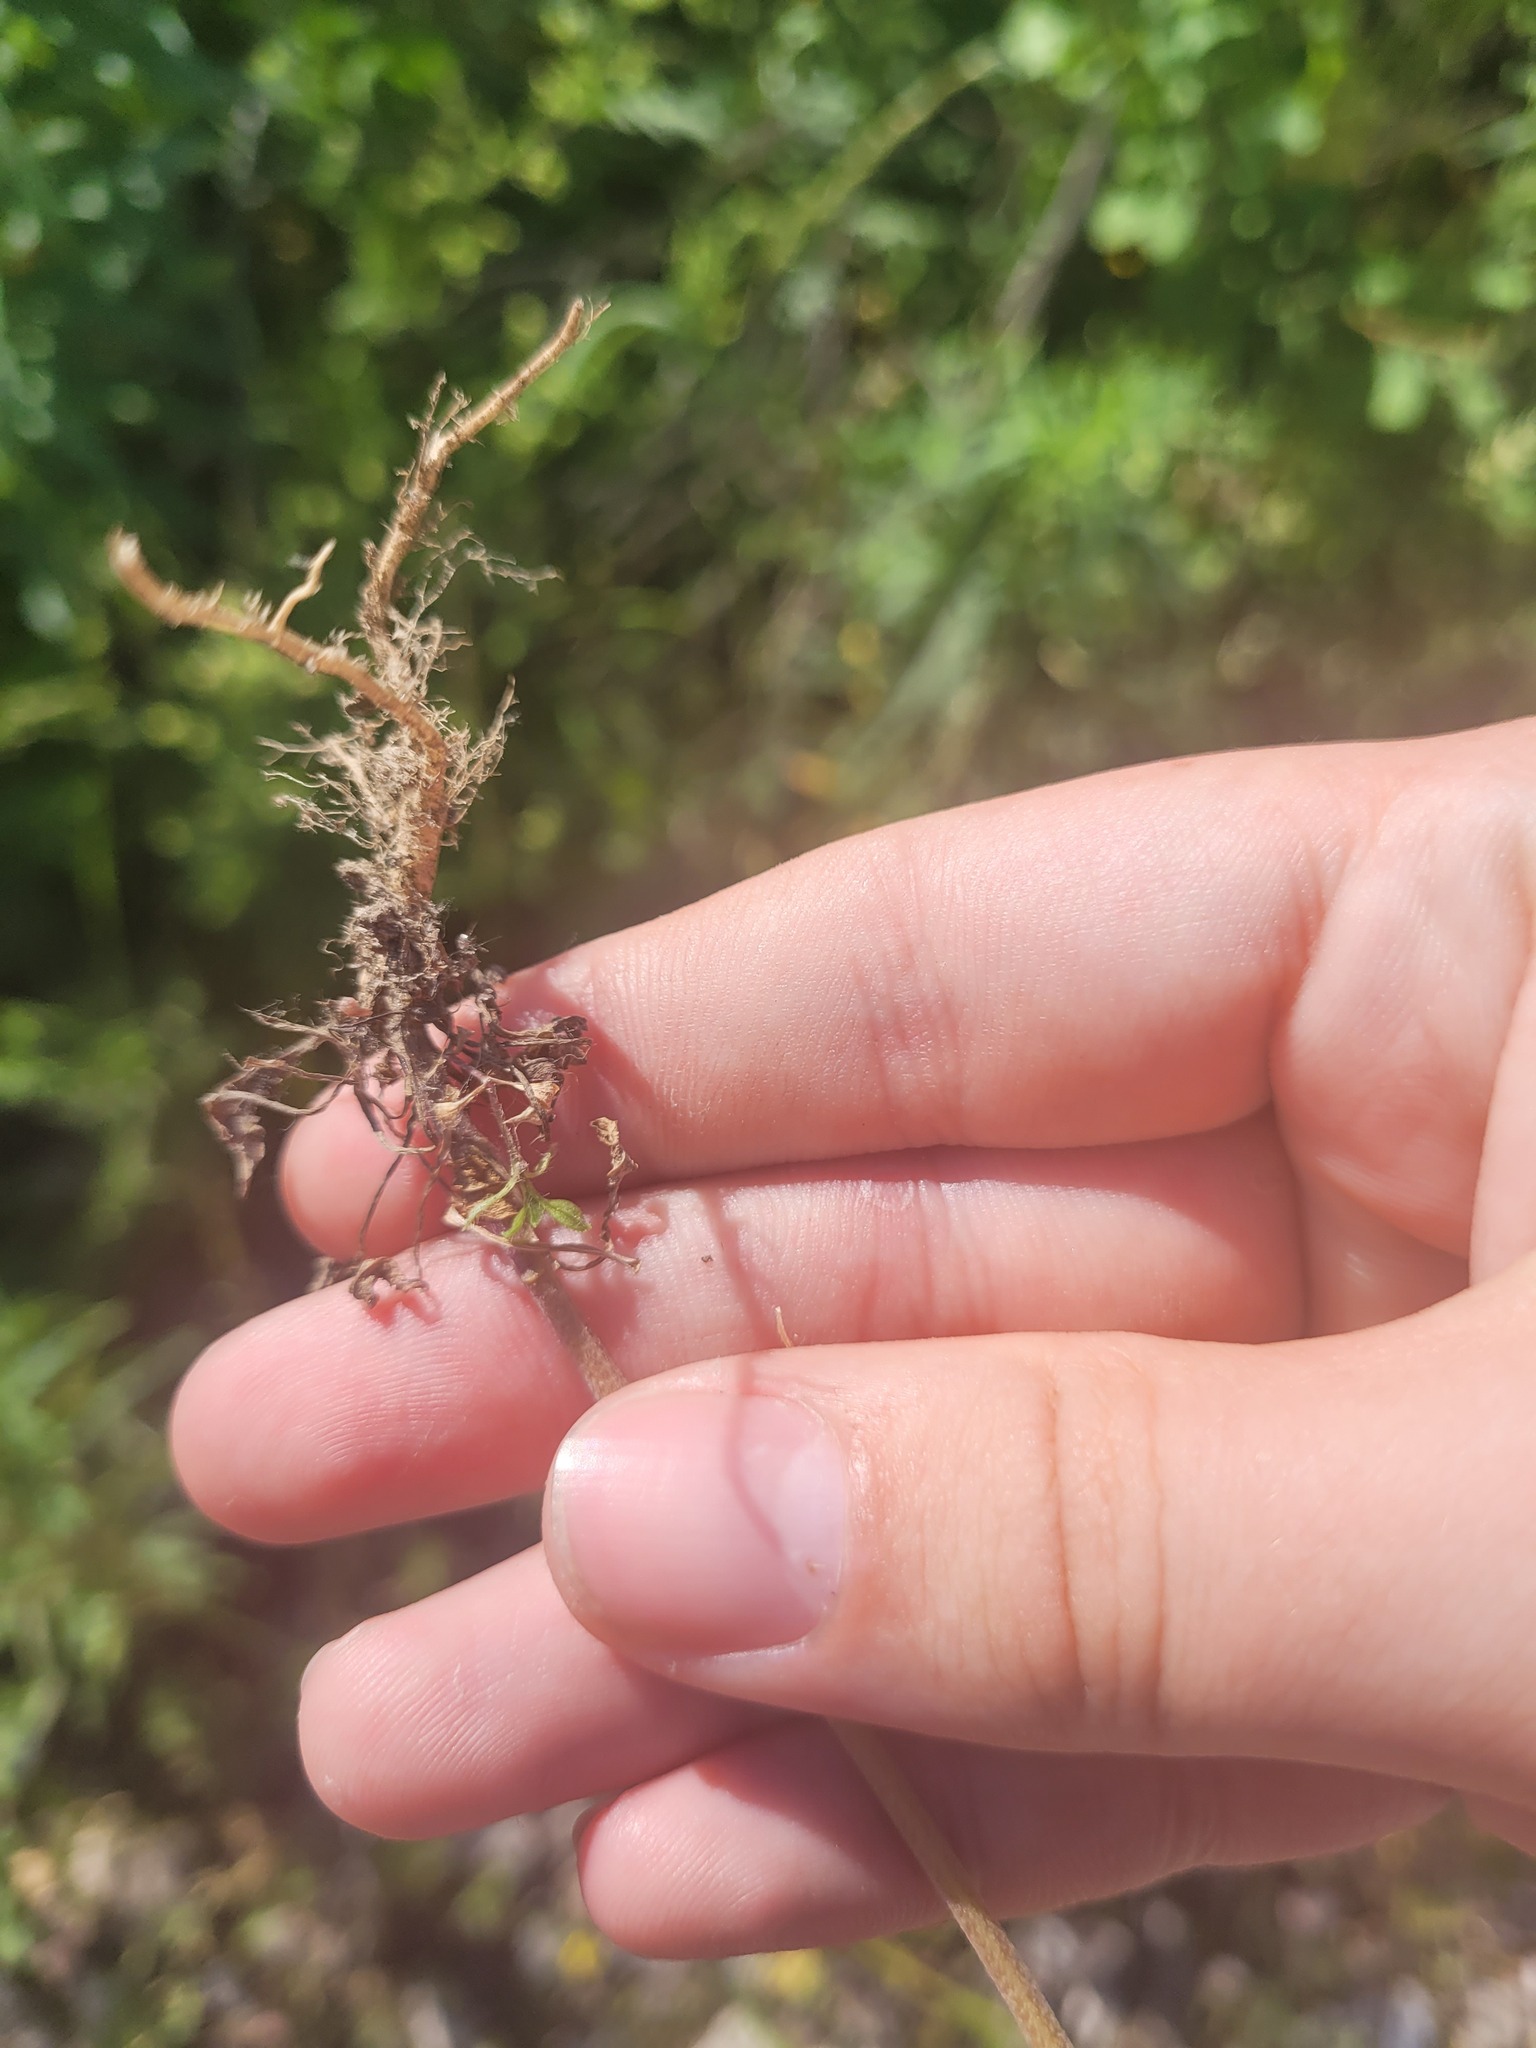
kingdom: Plantae
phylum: Tracheophyta
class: Magnoliopsida
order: Brassicales
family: Brassicaceae
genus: Erysimum
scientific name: Erysimum hieraciifolium
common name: European wallflower
